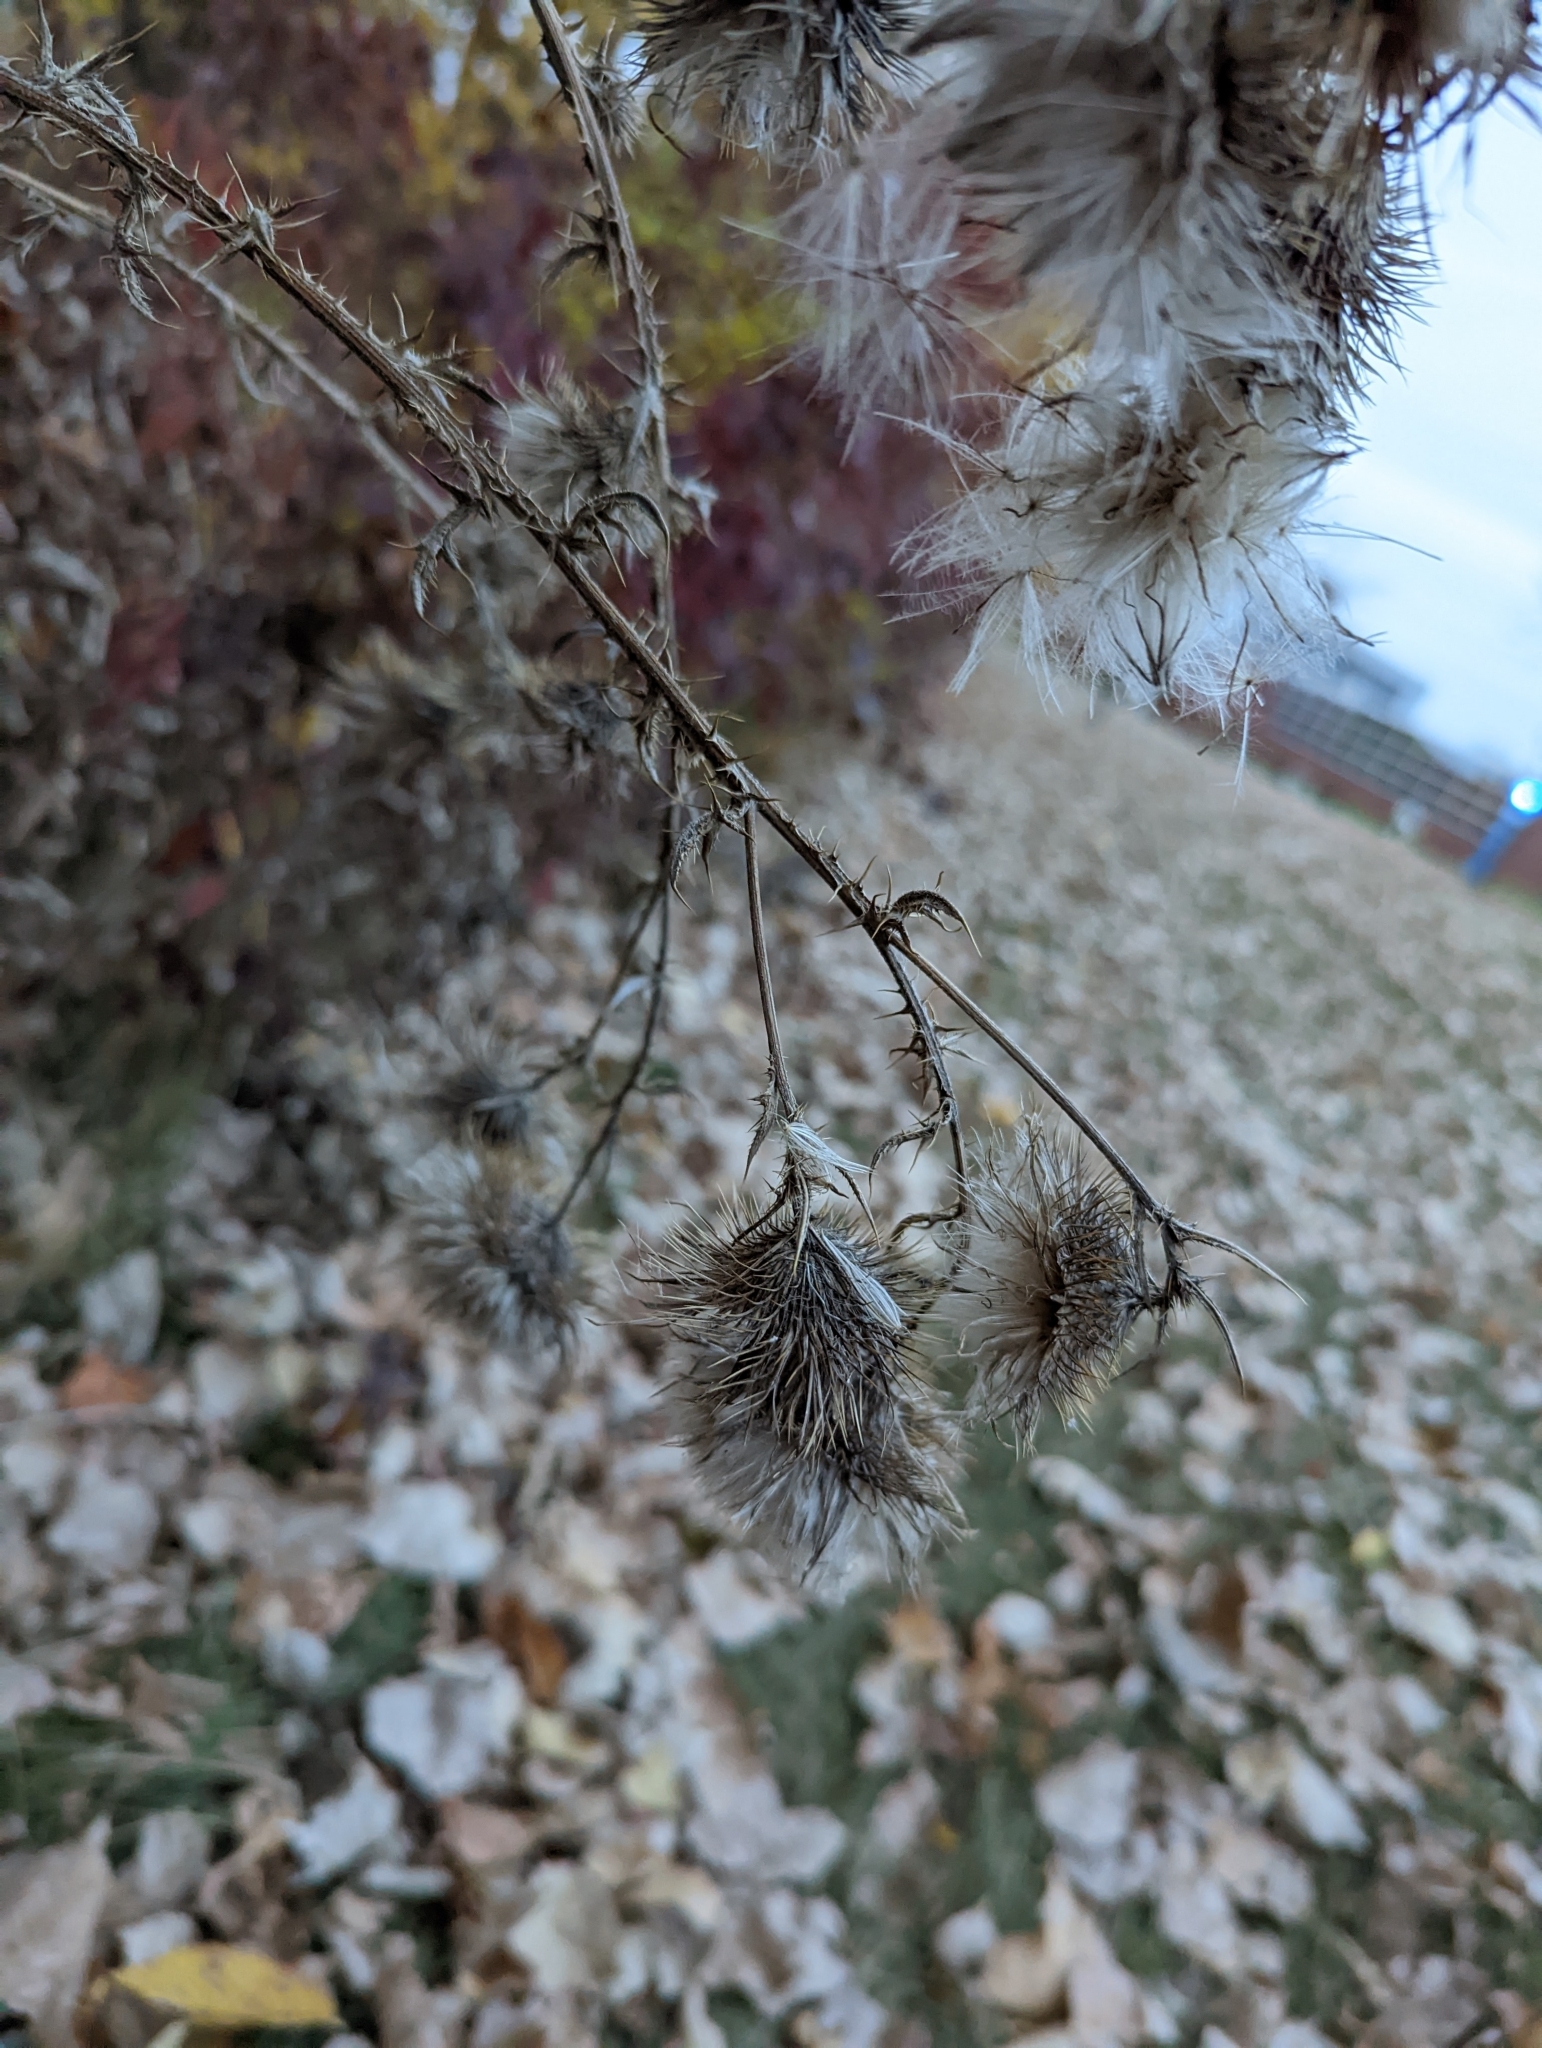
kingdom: Plantae
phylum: Tracheophyta
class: Magnoliopsida
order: Asterales
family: Asteraceae
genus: Cirsium
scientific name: Cirsium vulgare
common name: Bull thistle
